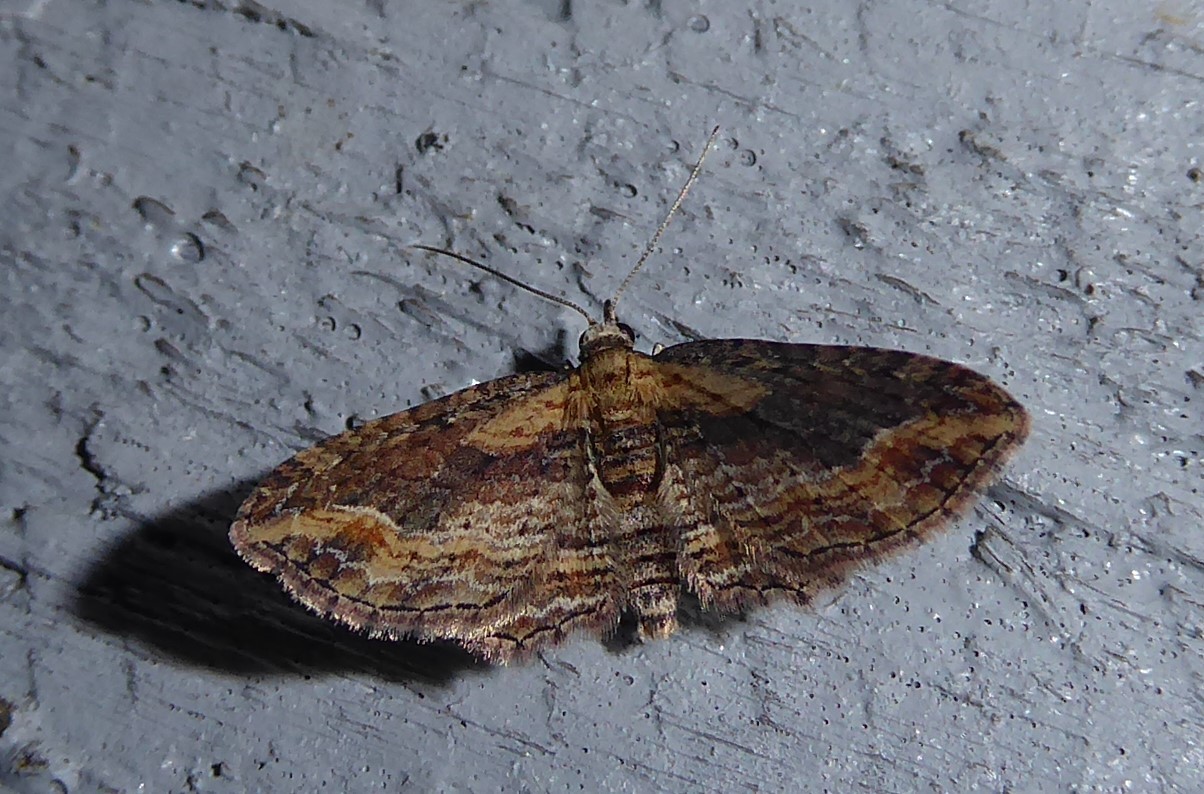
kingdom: Animalia
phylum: Arthropoda
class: Insecta
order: Lepidoptera
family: Geometridae
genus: Chloroclystis
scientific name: Chloroclystis filata
